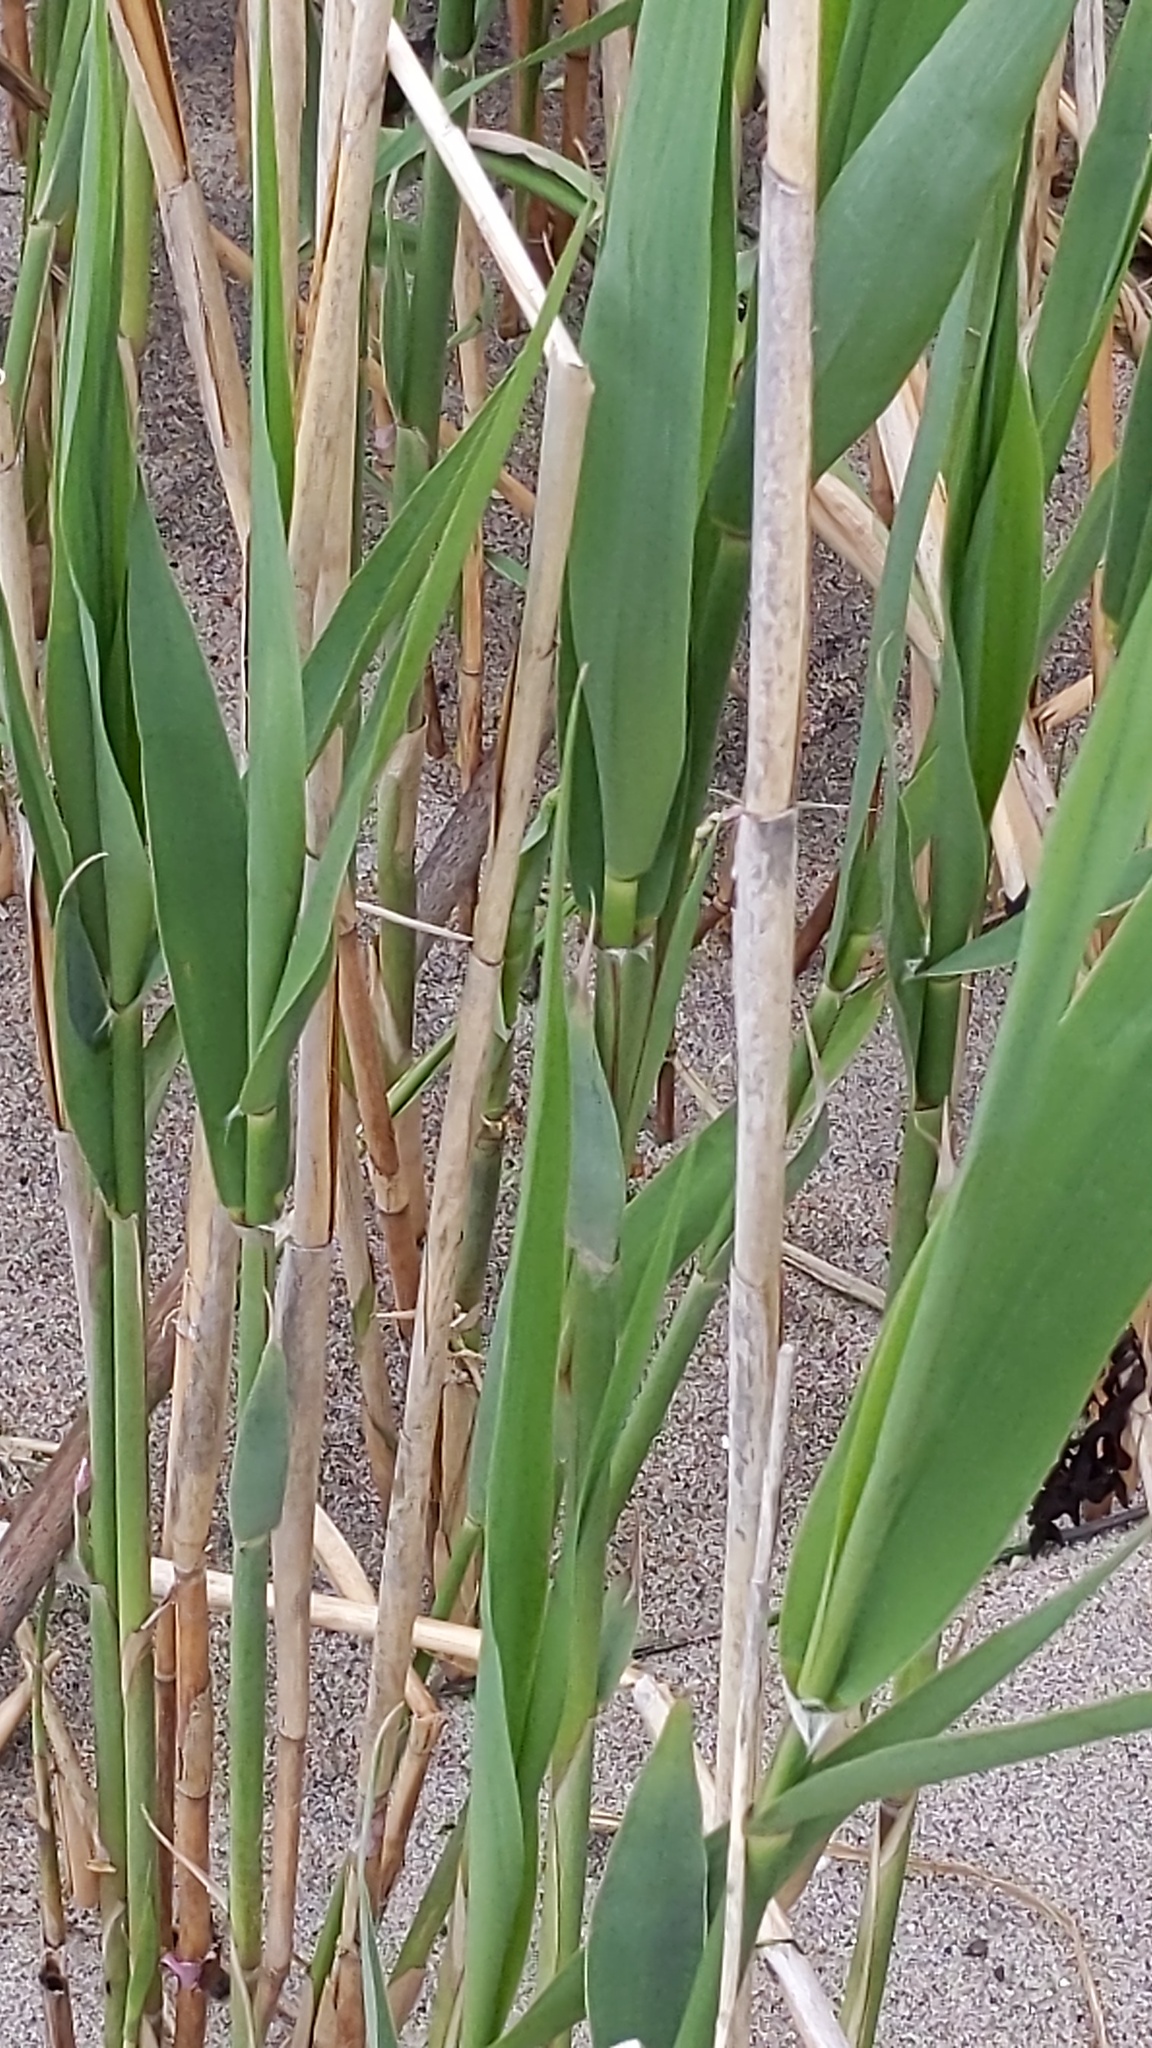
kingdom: Plantae
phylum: Tracheophyta
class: Liliopsida
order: Poales
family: Poaceae
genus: Phragmites
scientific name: Phragmites australis
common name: Common reed
